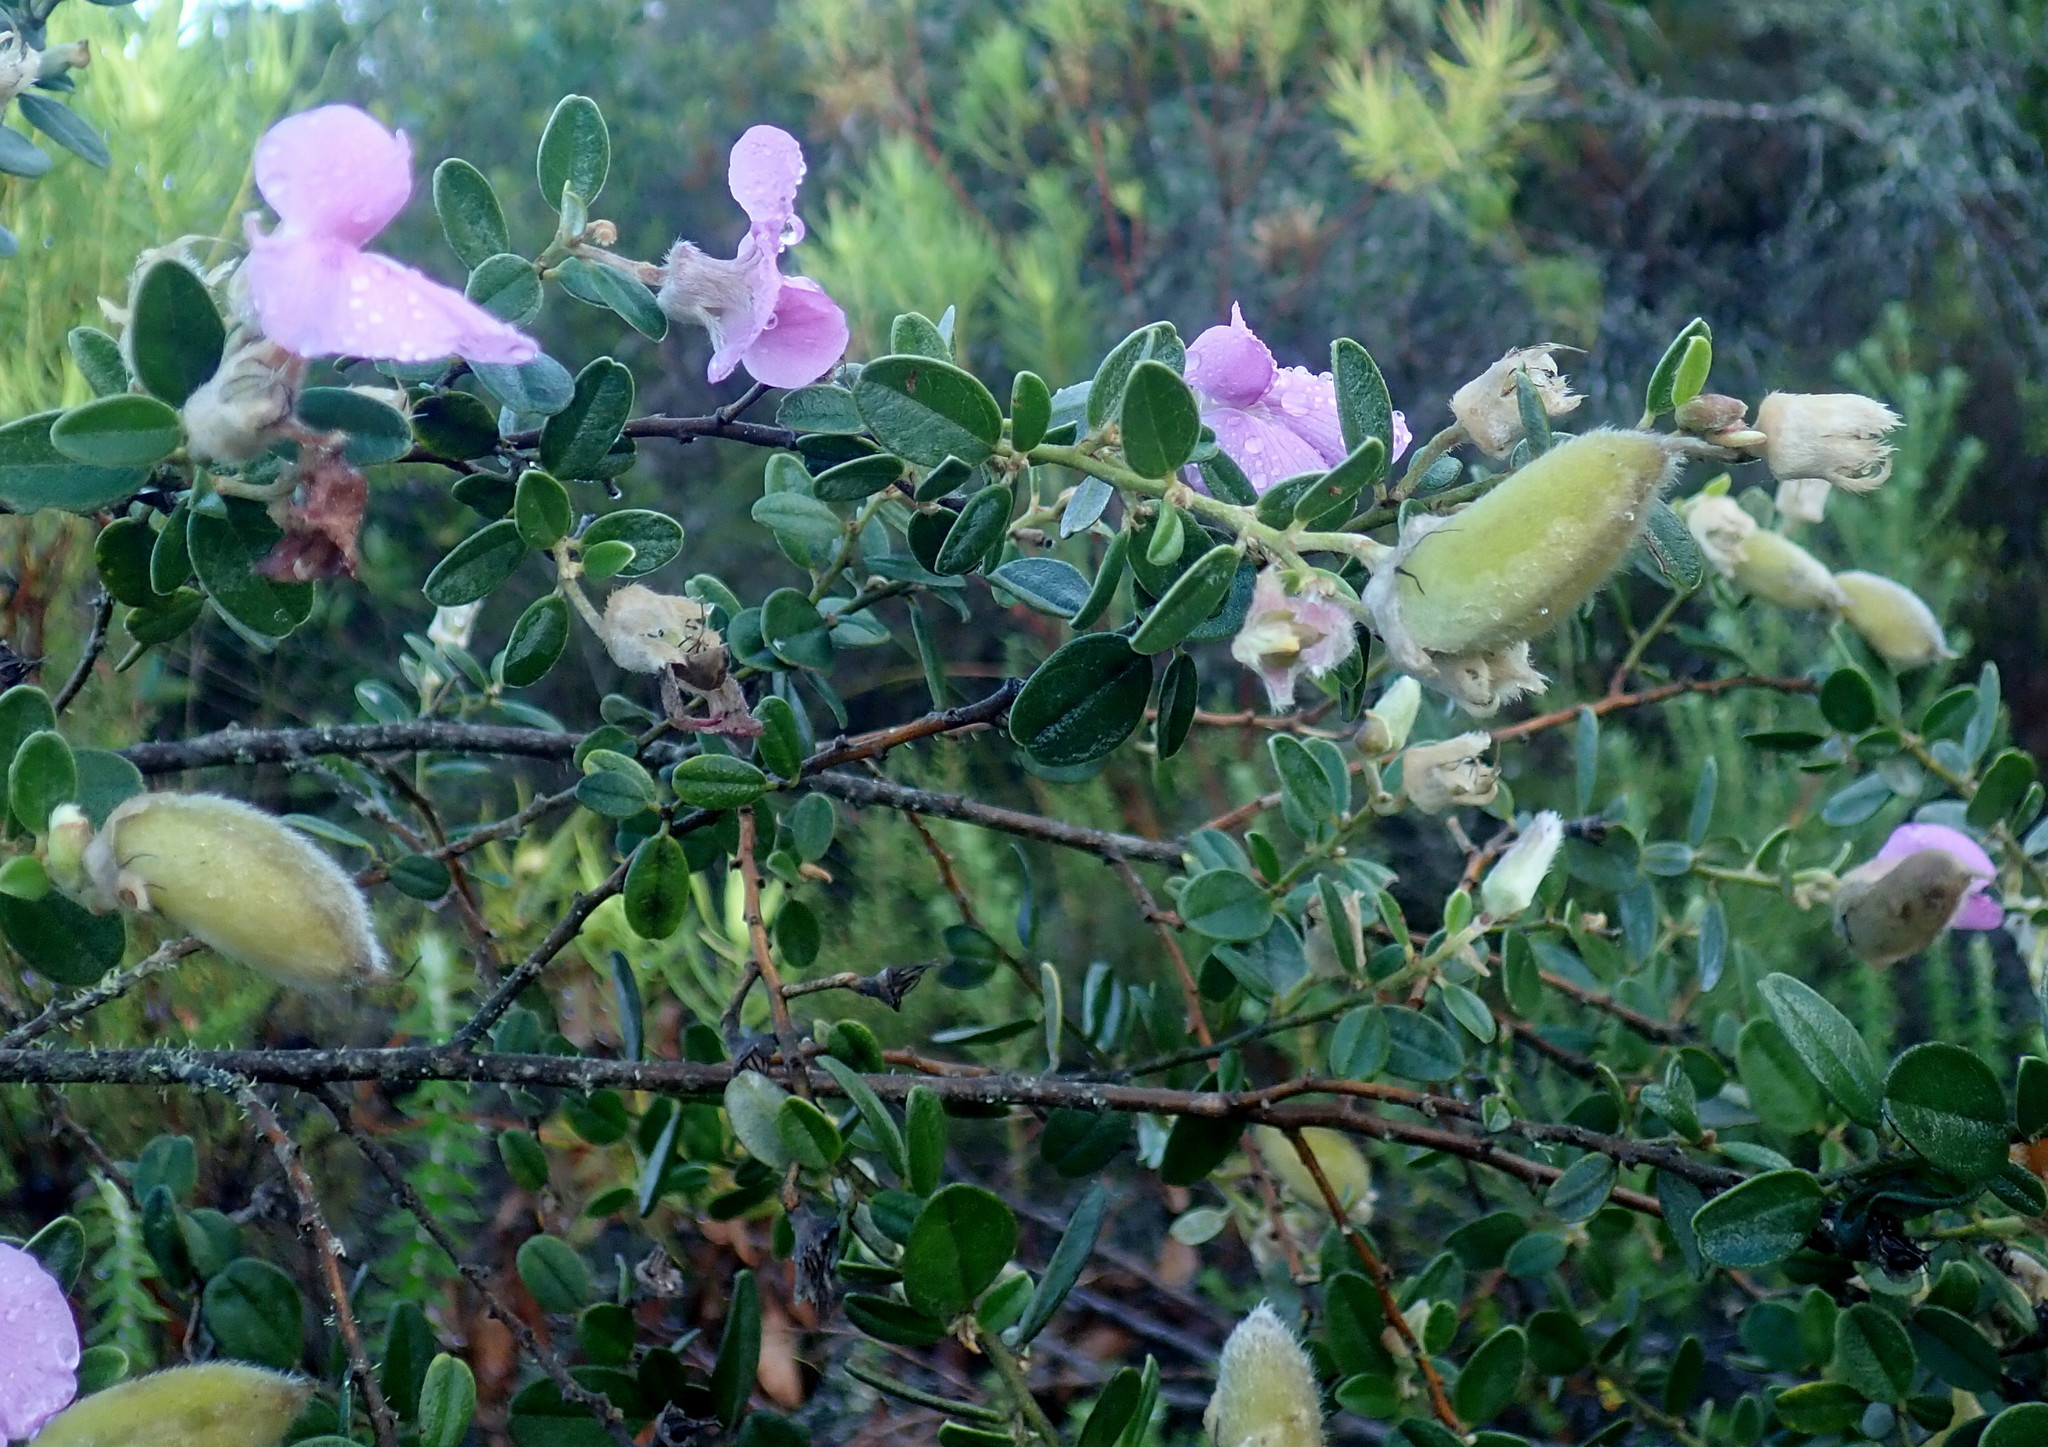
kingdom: Plantae
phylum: Tracheophyta
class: Magnoliopsida
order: Fabales
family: Fabaceae
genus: Podalyria
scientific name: Podalyria burchellii
